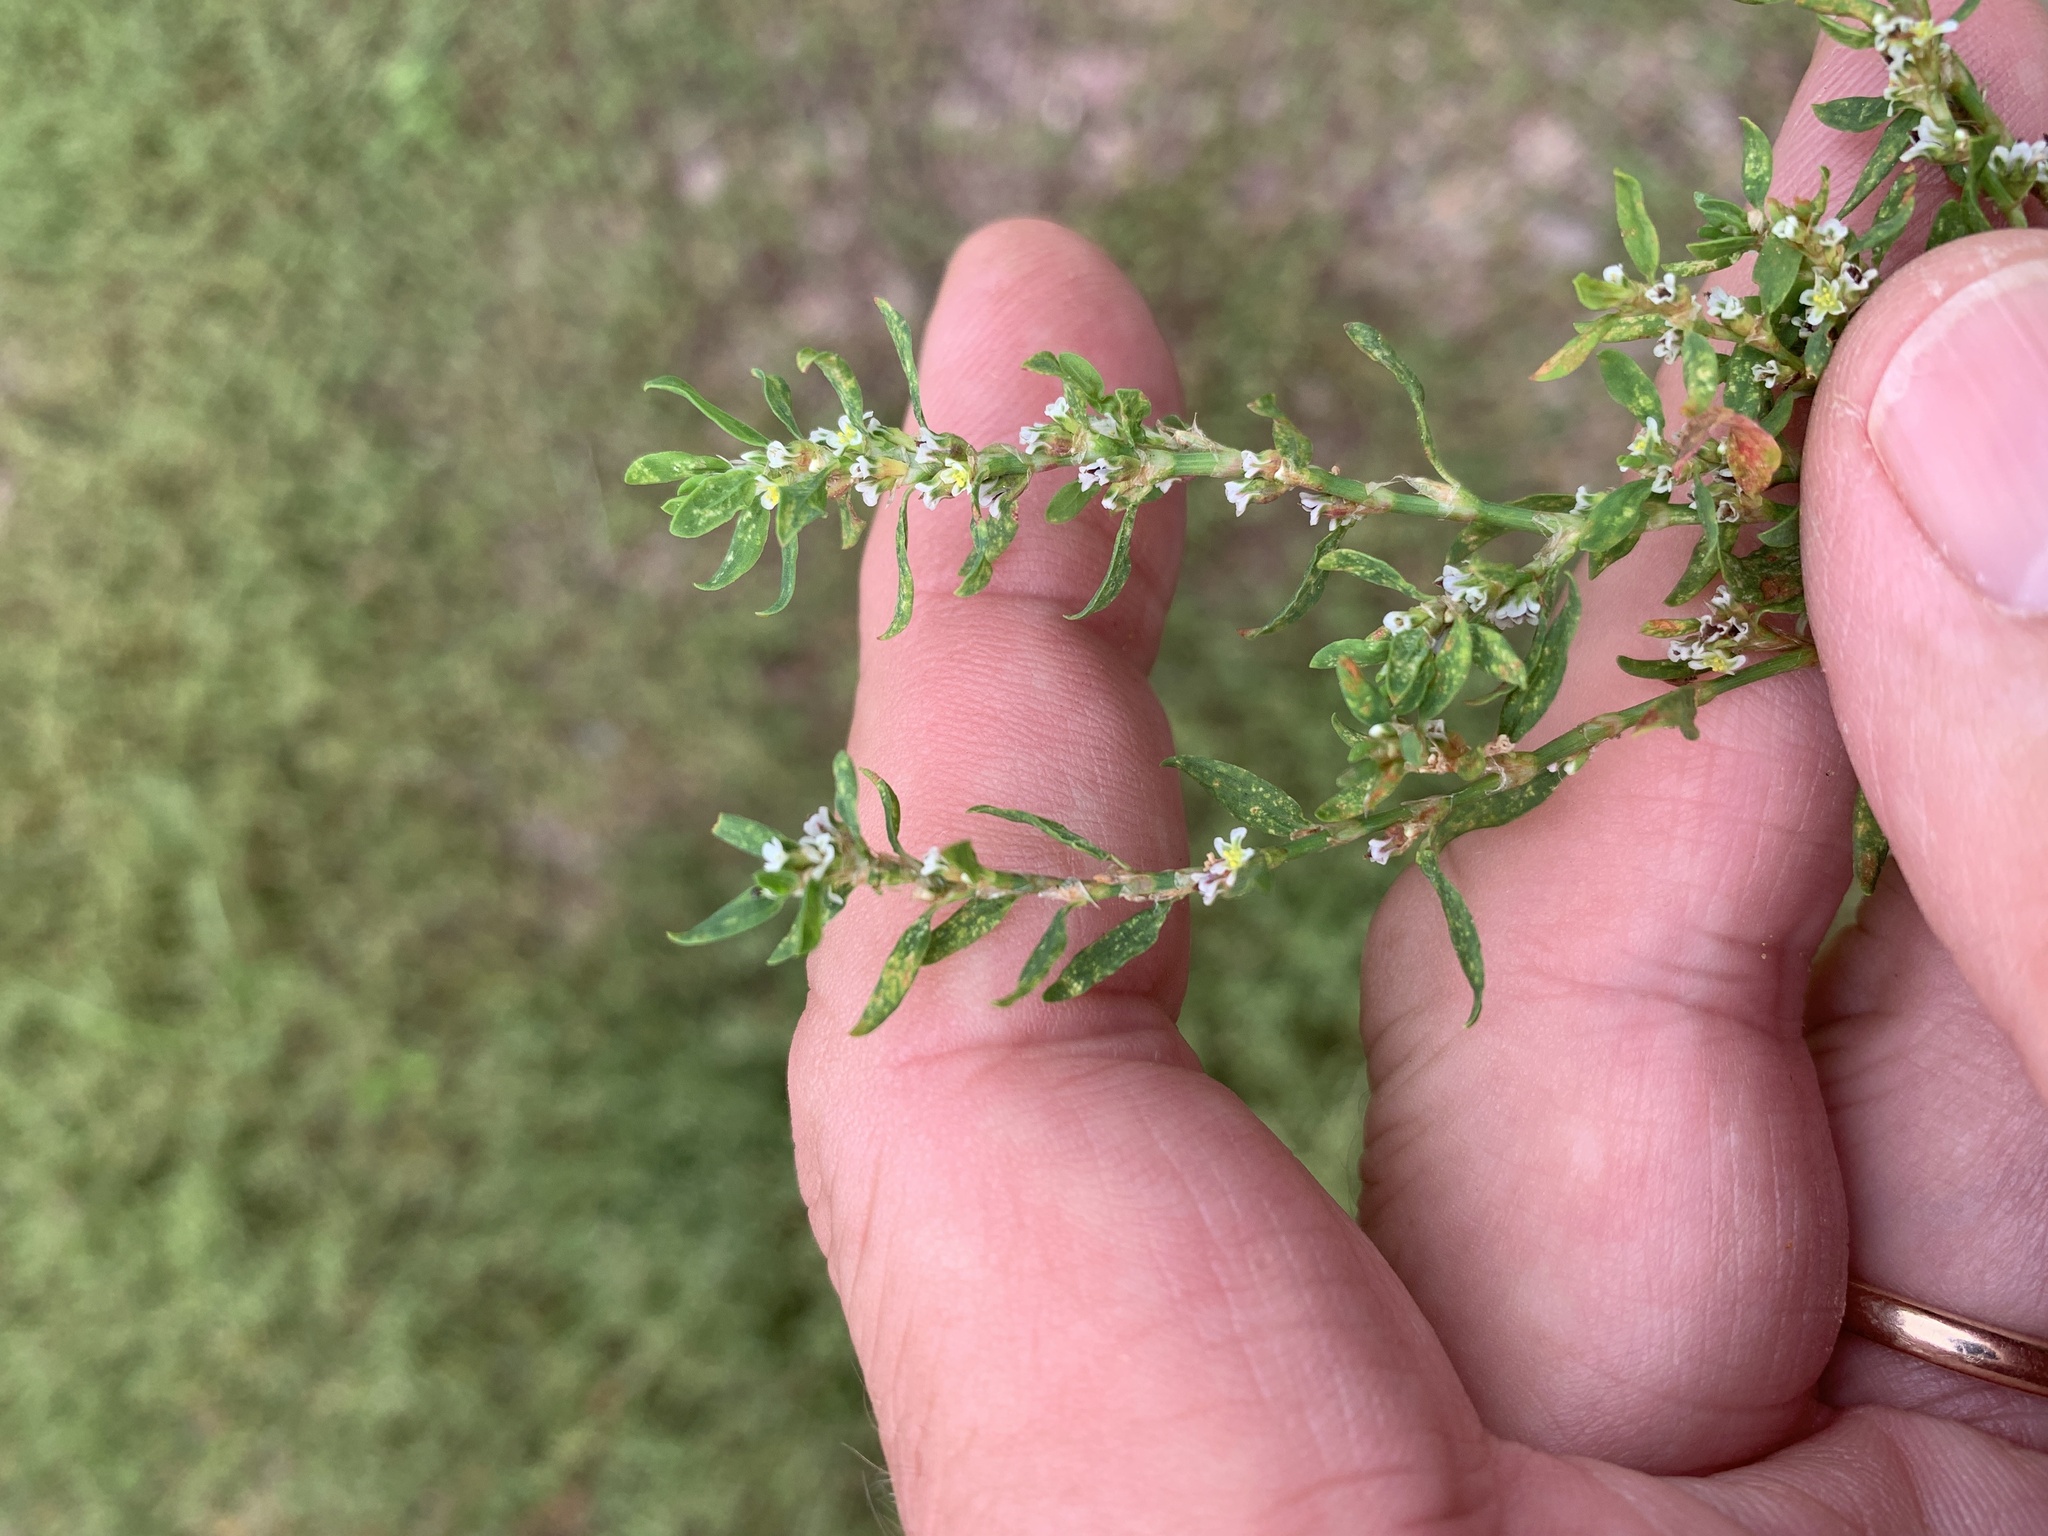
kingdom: Plantae
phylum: Tracheophyta
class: Magnoliopsida
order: Caryophyllales
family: Polygonaceae
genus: Polygonum
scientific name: Polygonum
